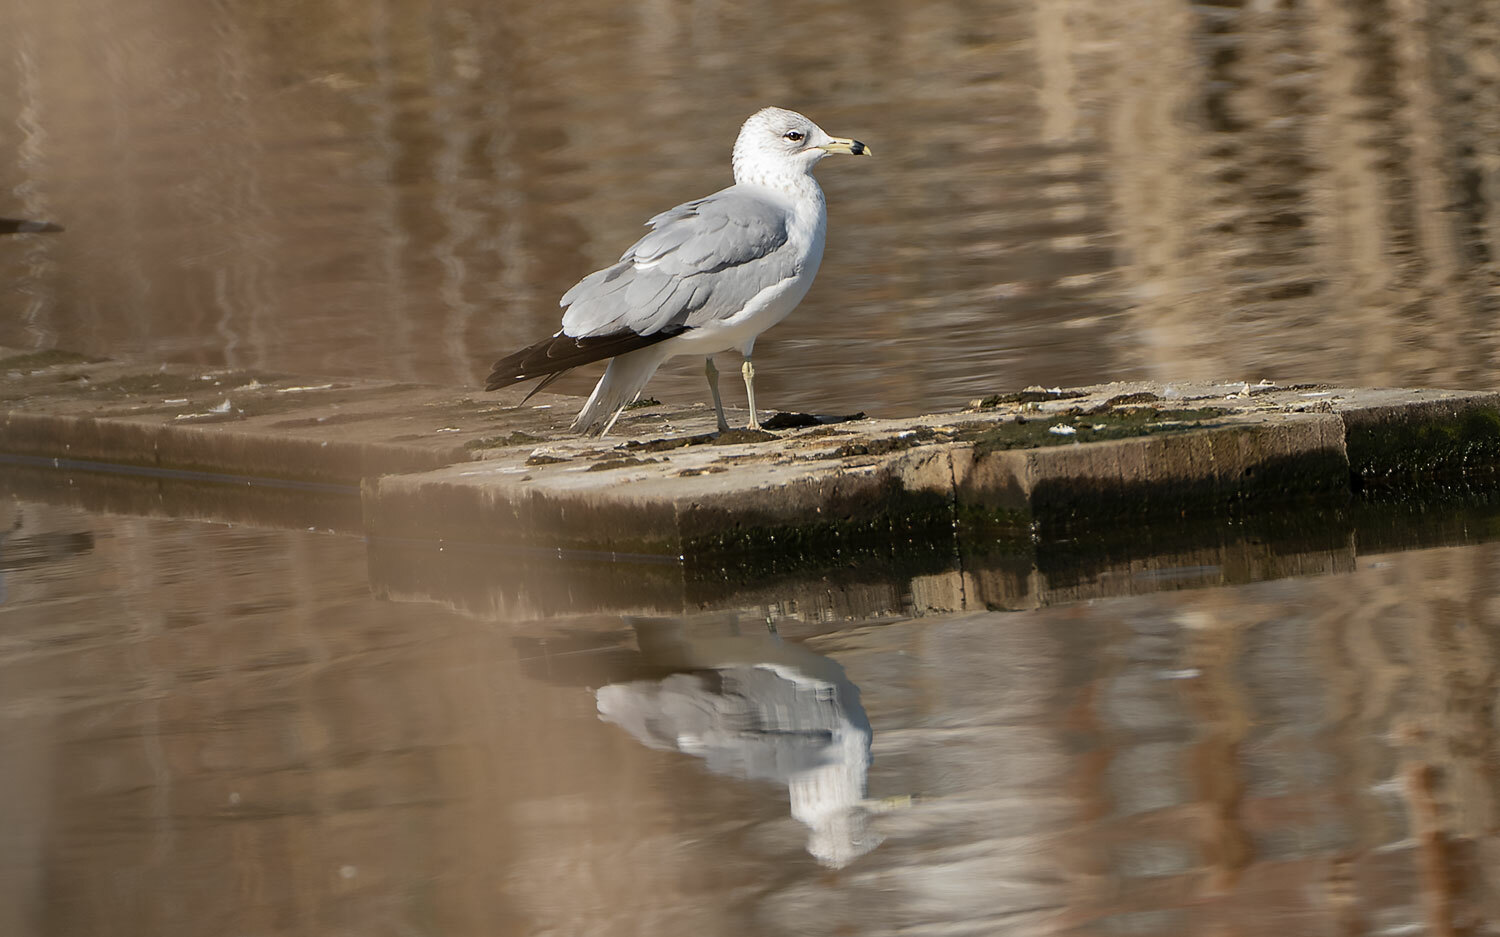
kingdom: Animalia
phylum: Chordata
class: Aves
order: Charadriiformes
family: Laridae
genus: Larus
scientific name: Larus delawarensis
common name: Ring-billed gull
